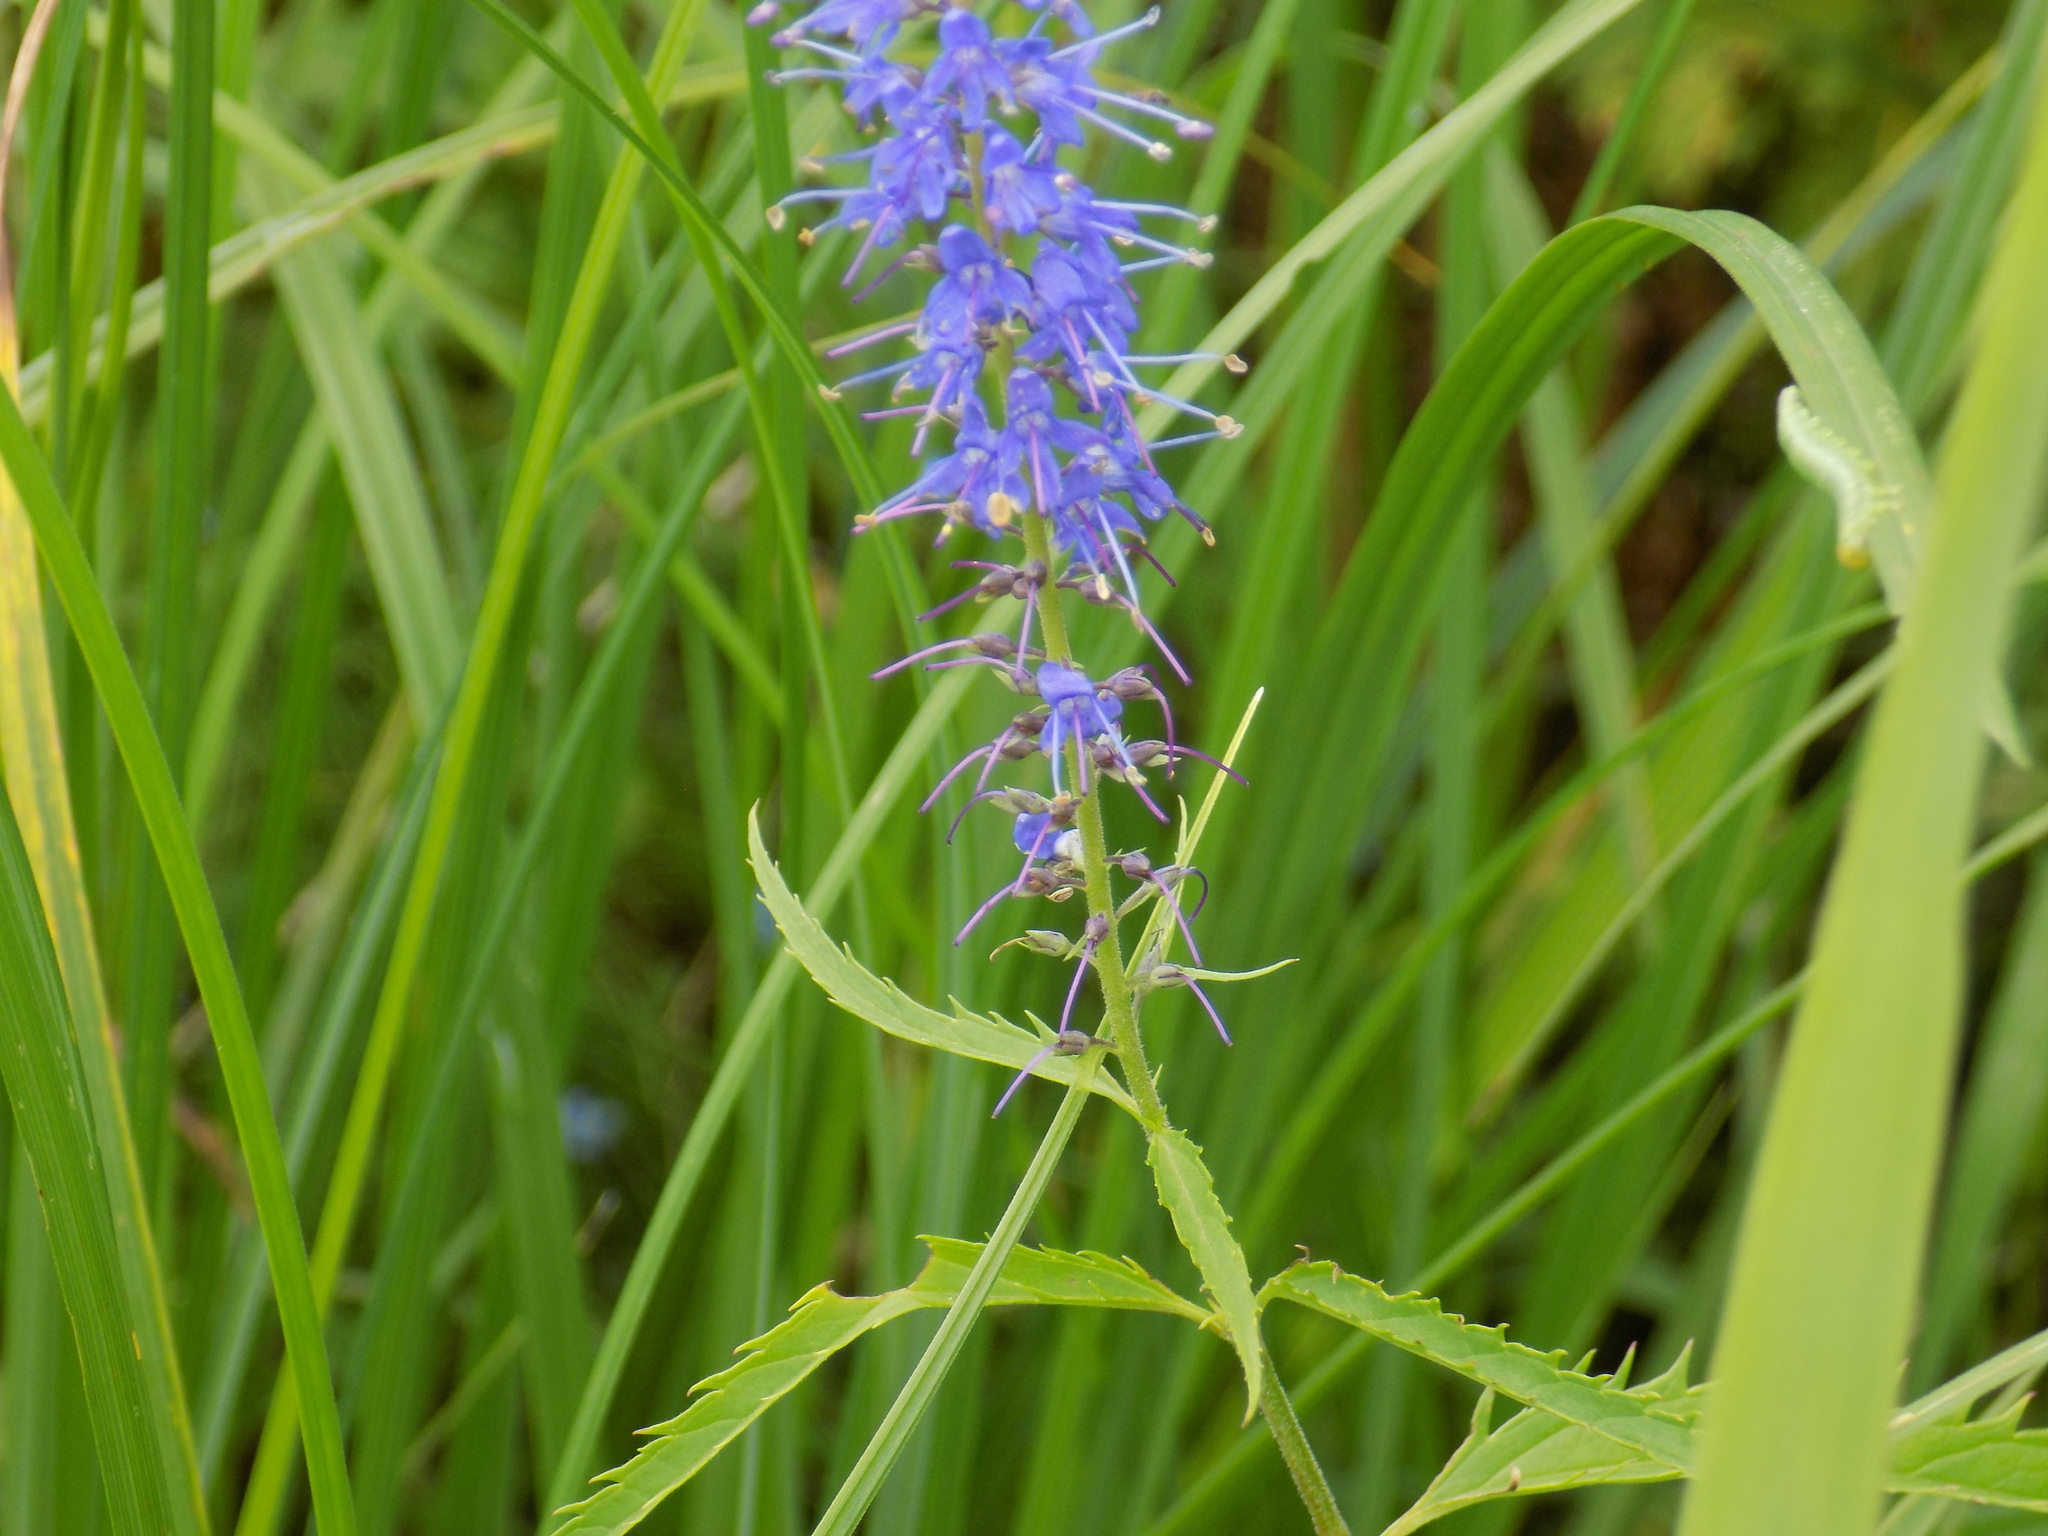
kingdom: Plantae
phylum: Tracheophyta
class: Magnoliopsida
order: Lamiales
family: Plantaginaceae
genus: Veronica
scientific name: Veronica longifolia
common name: Garden speedwell
